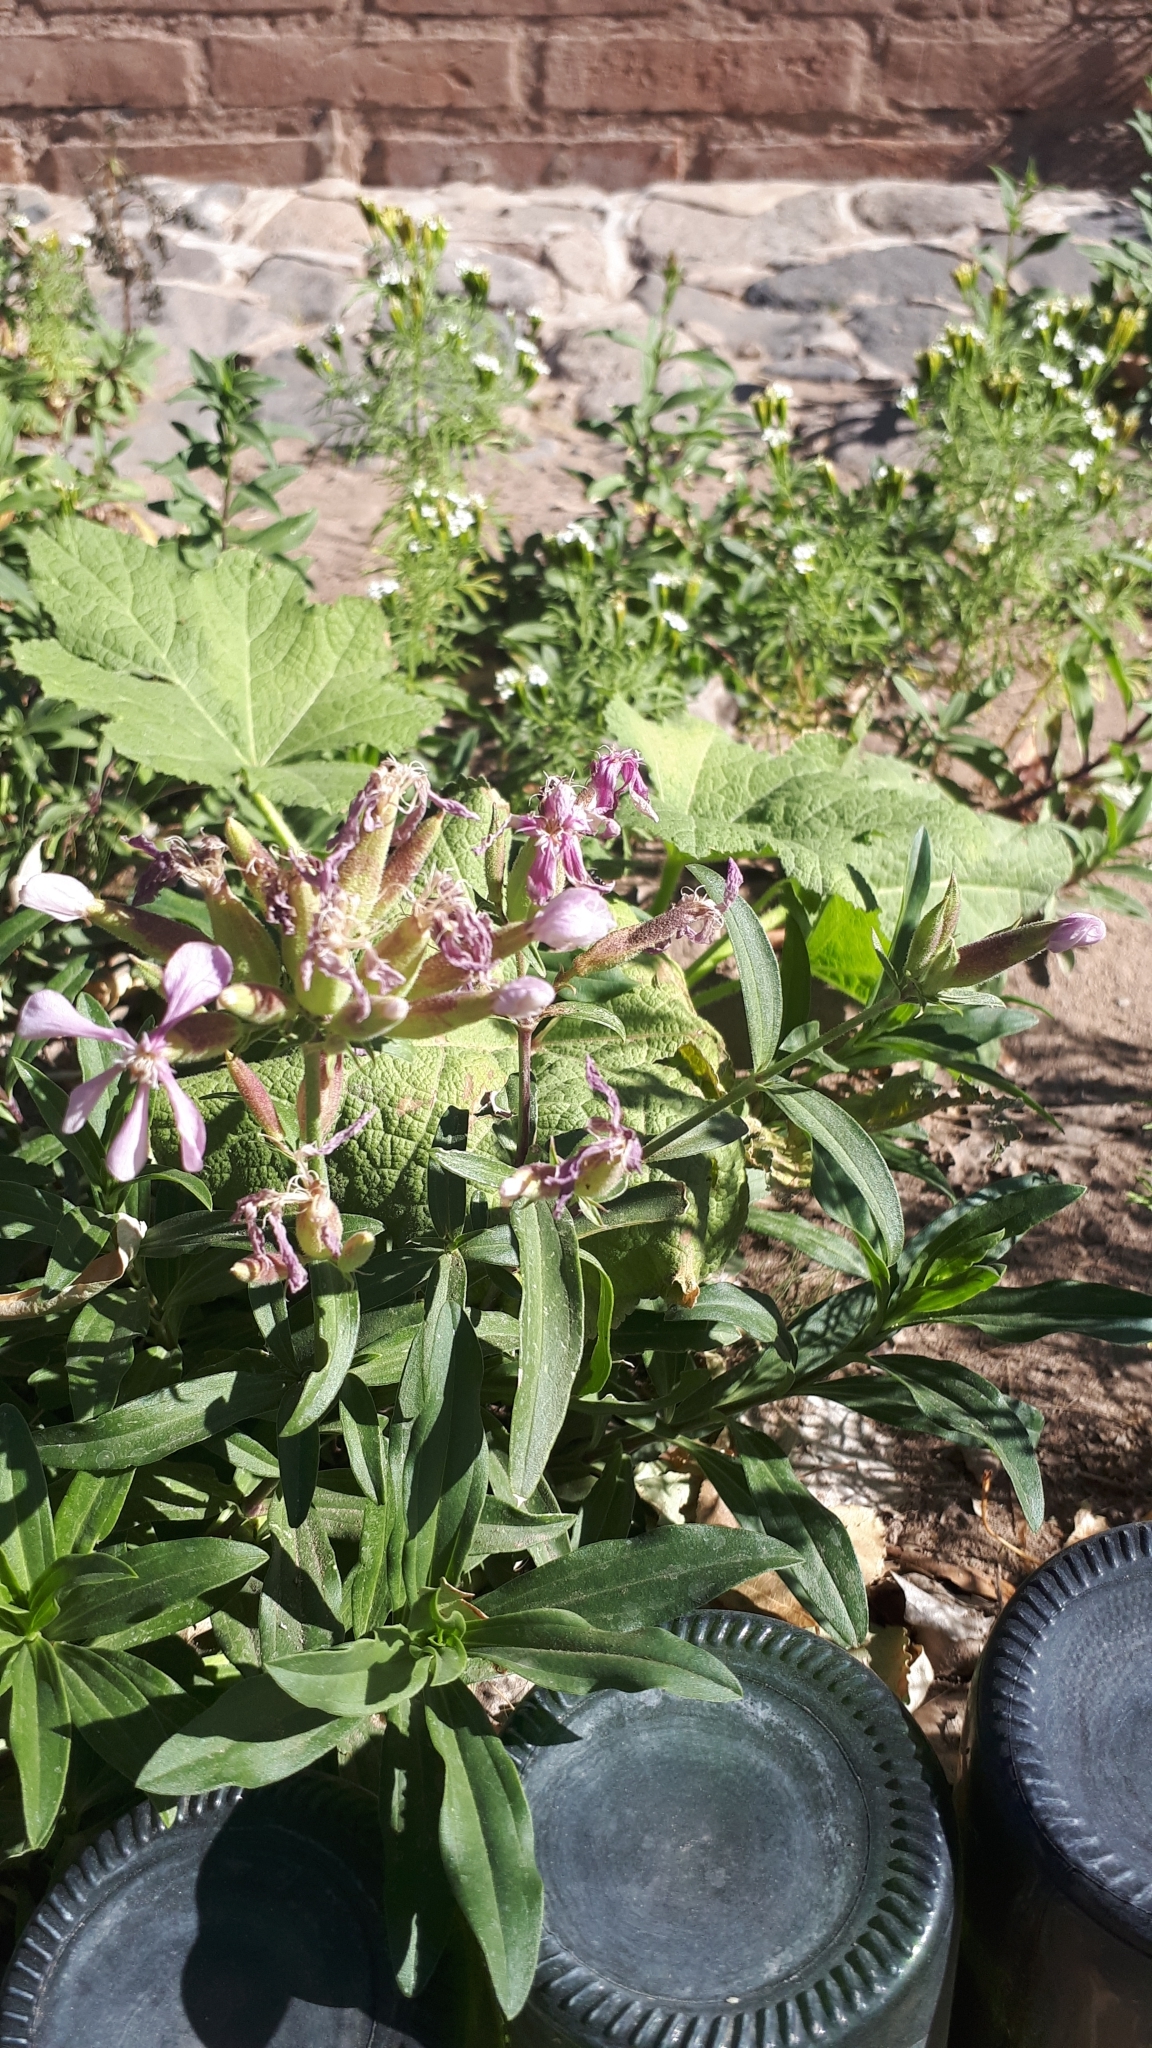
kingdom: Plantae
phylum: Tracheophyta
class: Magnoliopsida
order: Caryophyllales
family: Caryophyllaceae
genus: Saponaria
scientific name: Saponaria officinalis
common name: Soapwort
